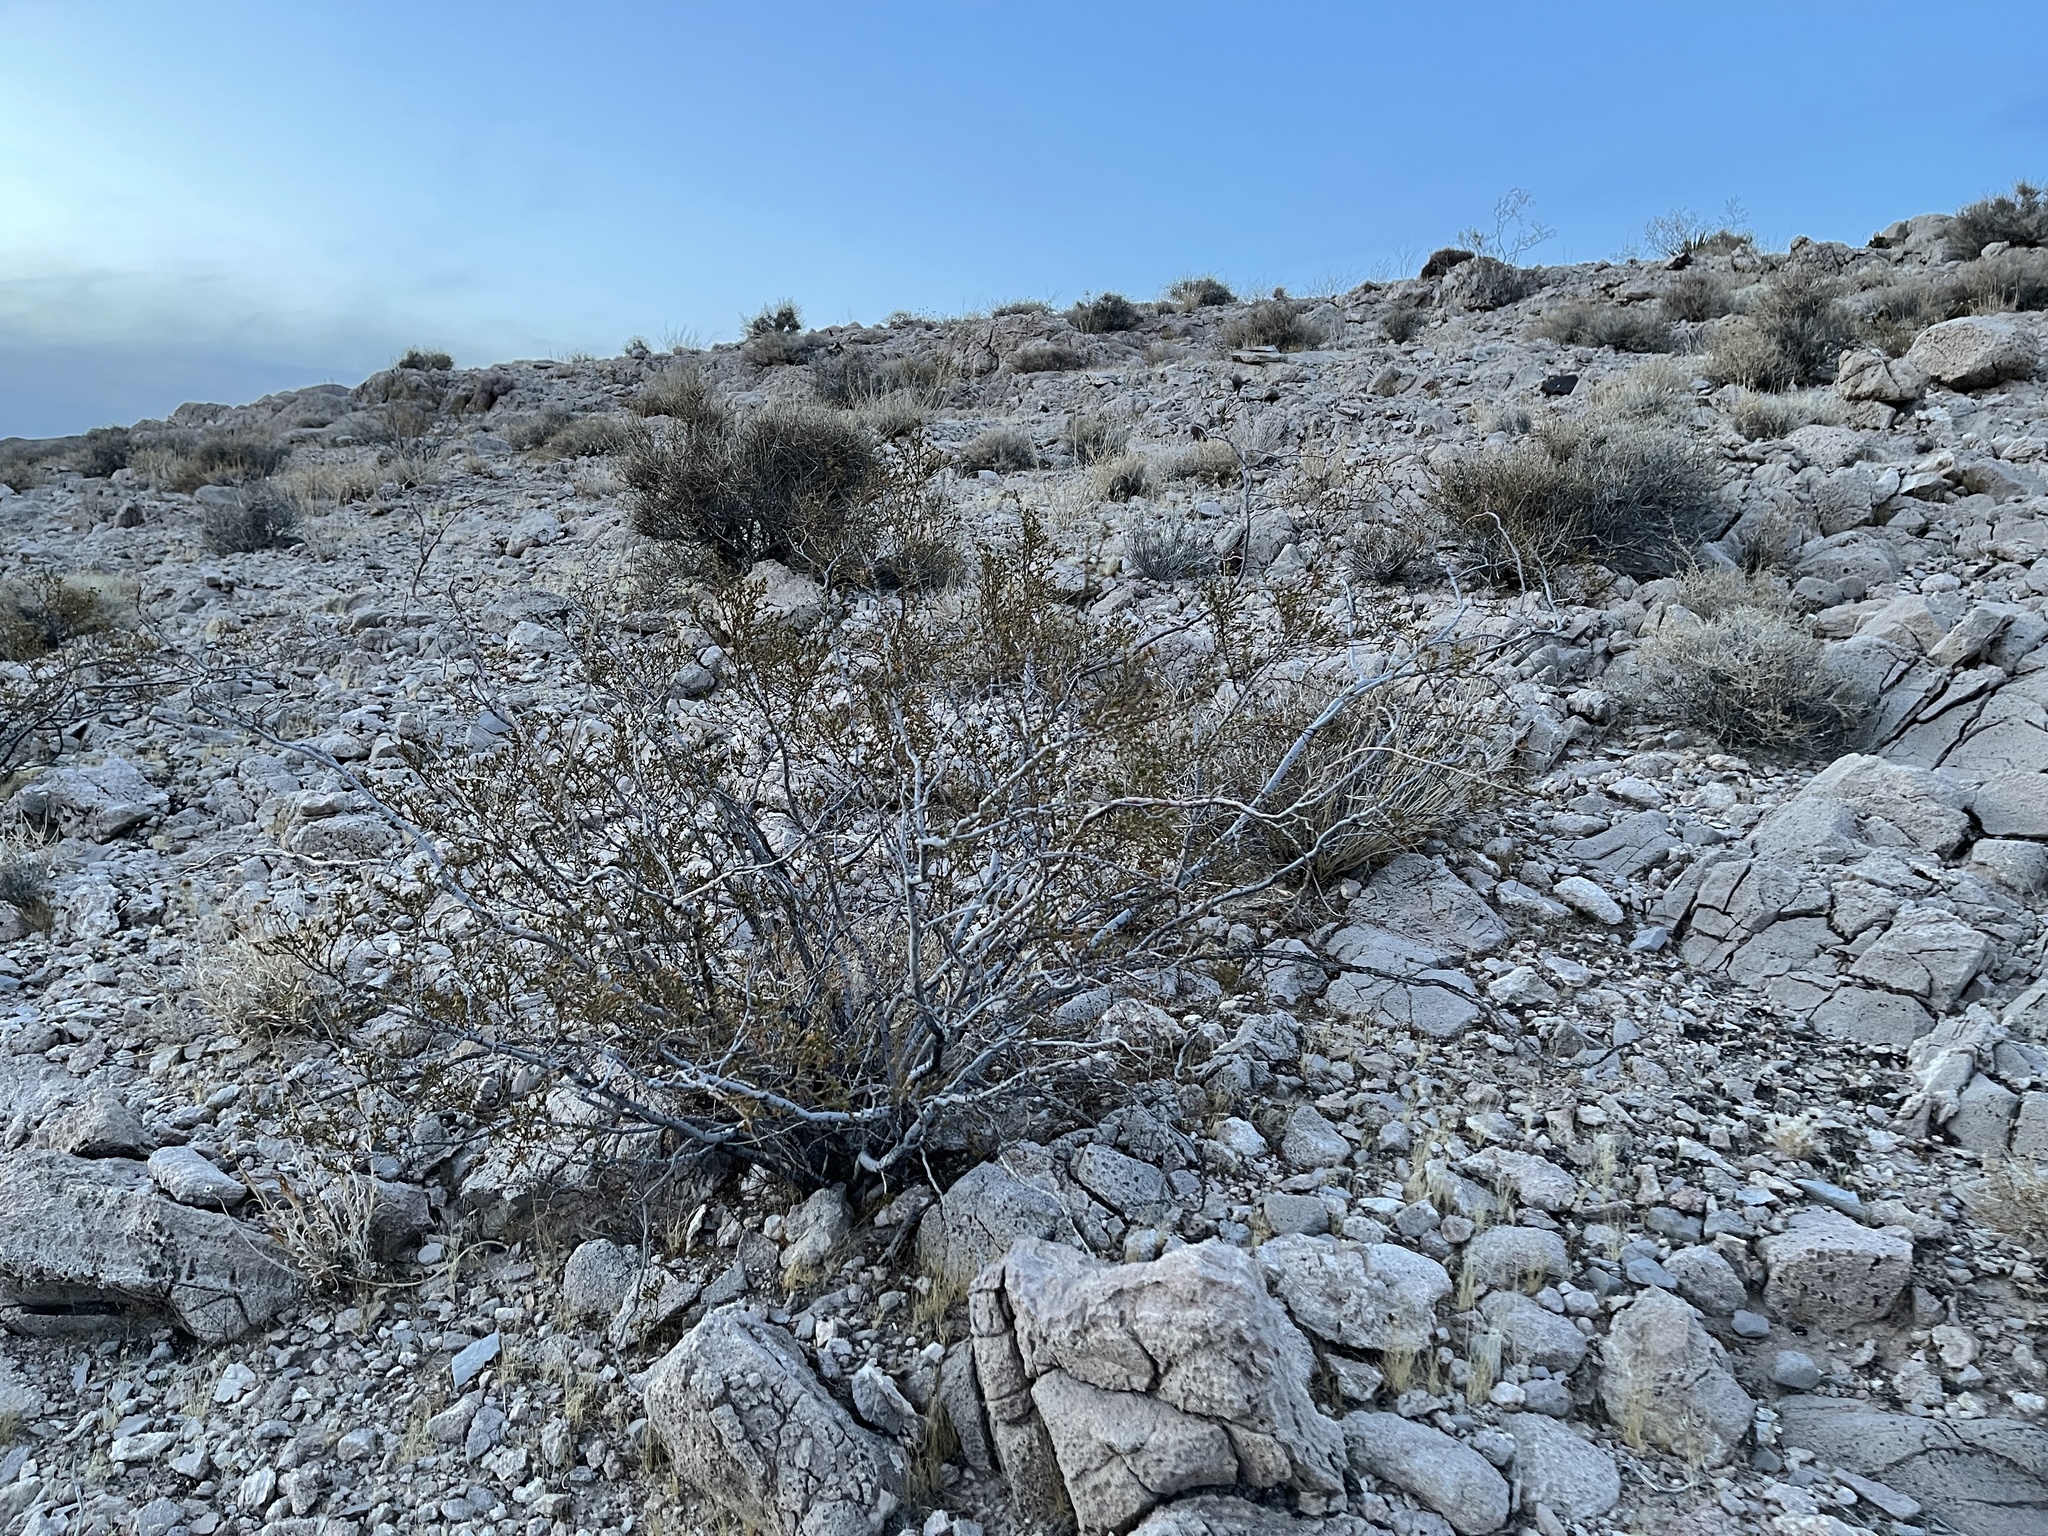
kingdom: Plantae
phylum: Tracheophyta
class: Magnoliopsida
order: Zygophyllales
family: Zygophyllaceae
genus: Larrea
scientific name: Larrea tridentata
